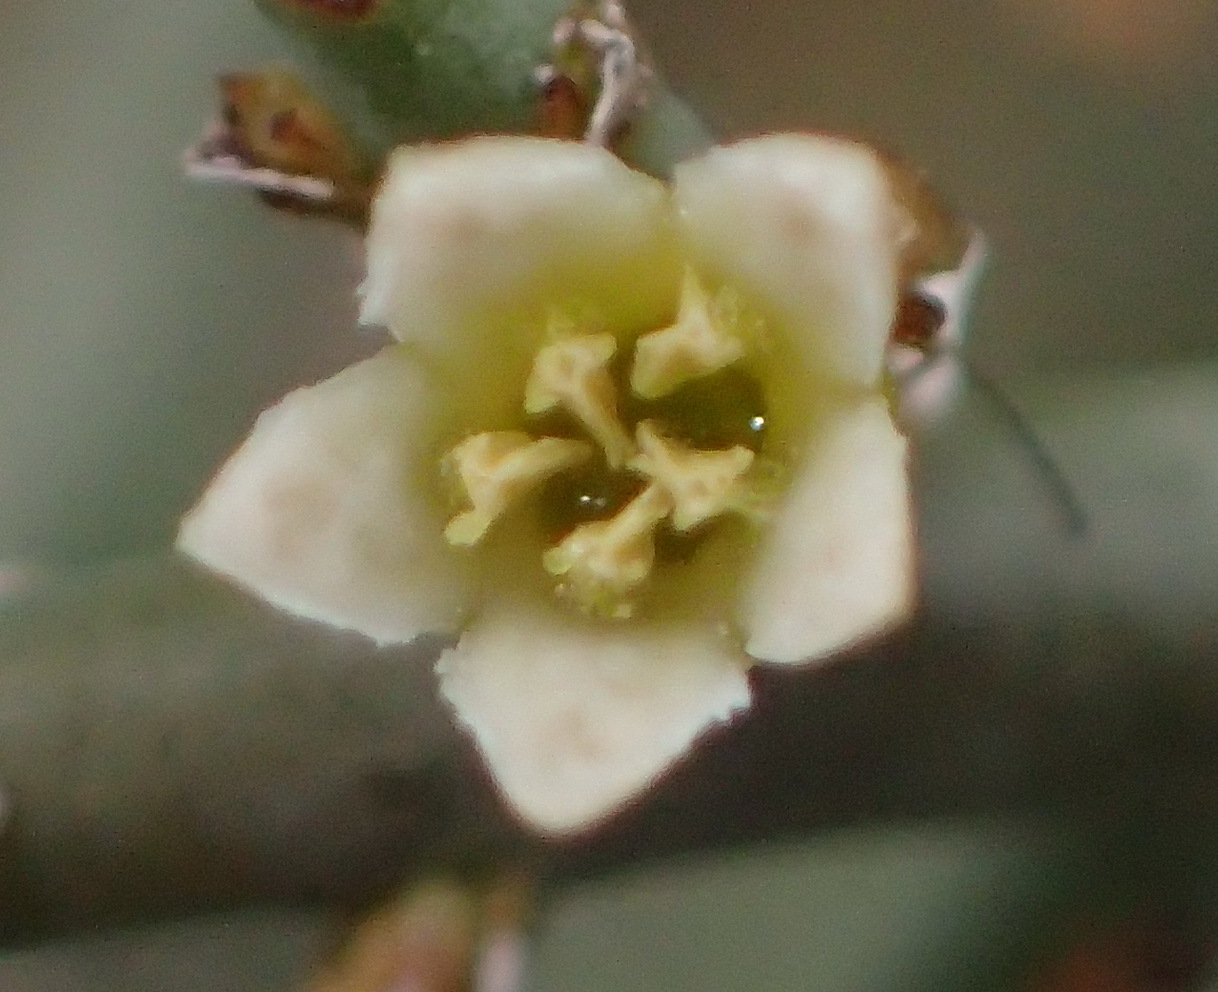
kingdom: Plantae
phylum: Tracheophyta
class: Magnoliopsida
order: Santalales
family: Thesiaceae
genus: Thesium
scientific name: Thesium hystrix
